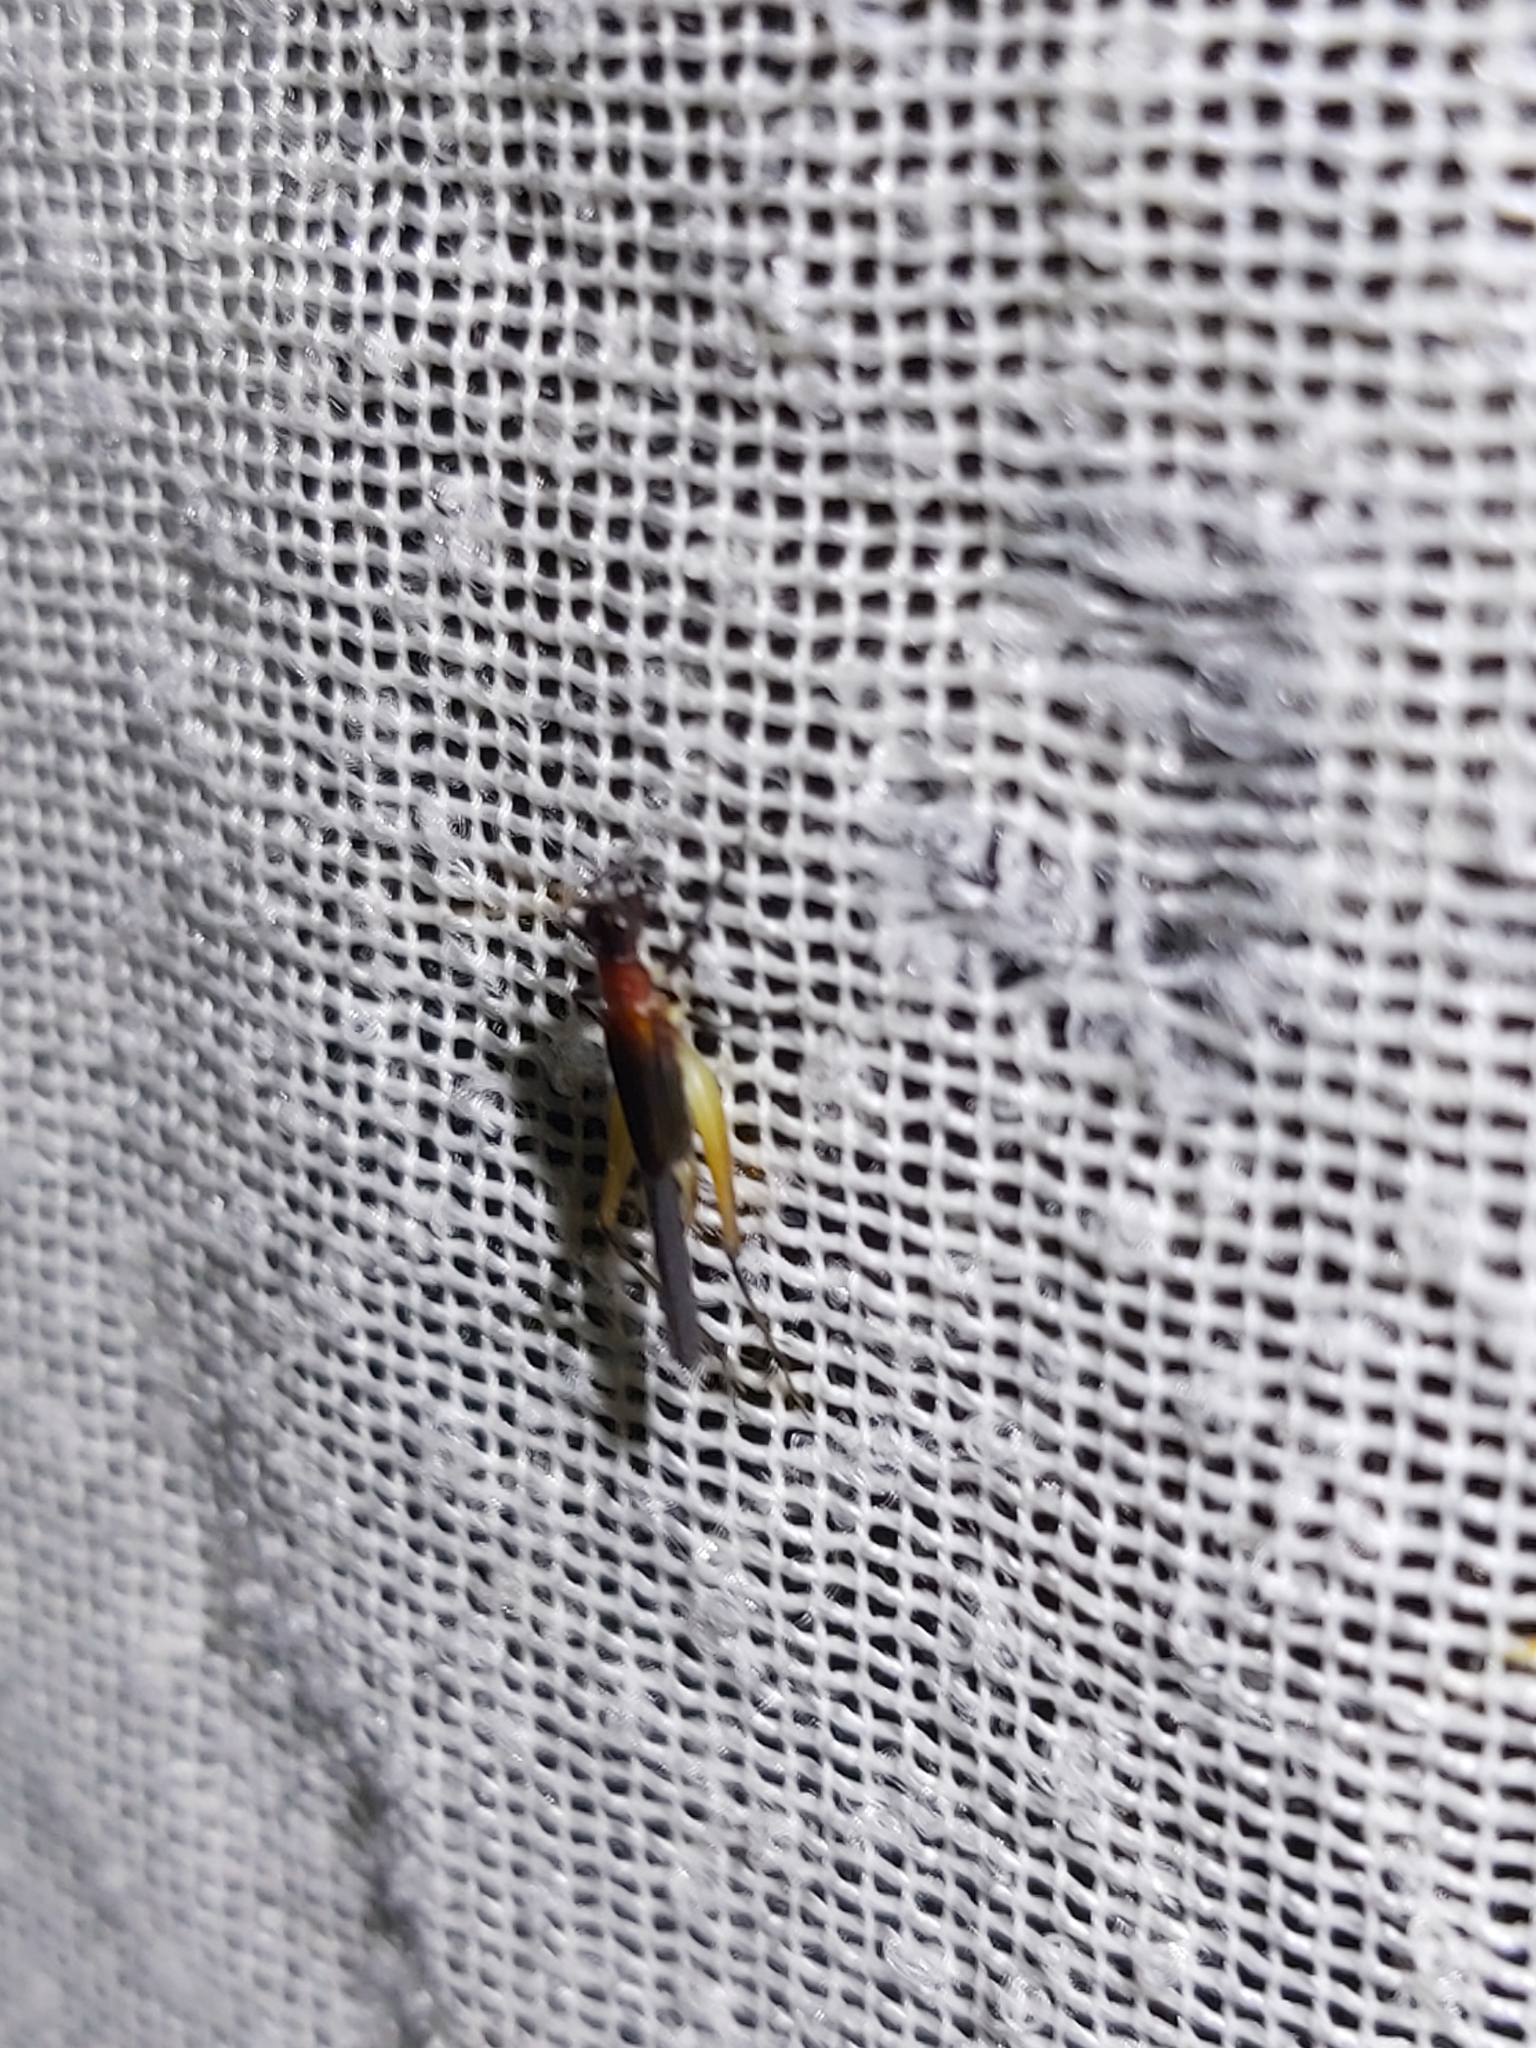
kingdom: Animalia
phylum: Arthropoda
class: Insecta
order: Orthoptera
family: Trigonidiidae
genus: Homoeoxipha
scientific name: Homoeoxipha lycoides
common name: Tinkling leaf-runner
